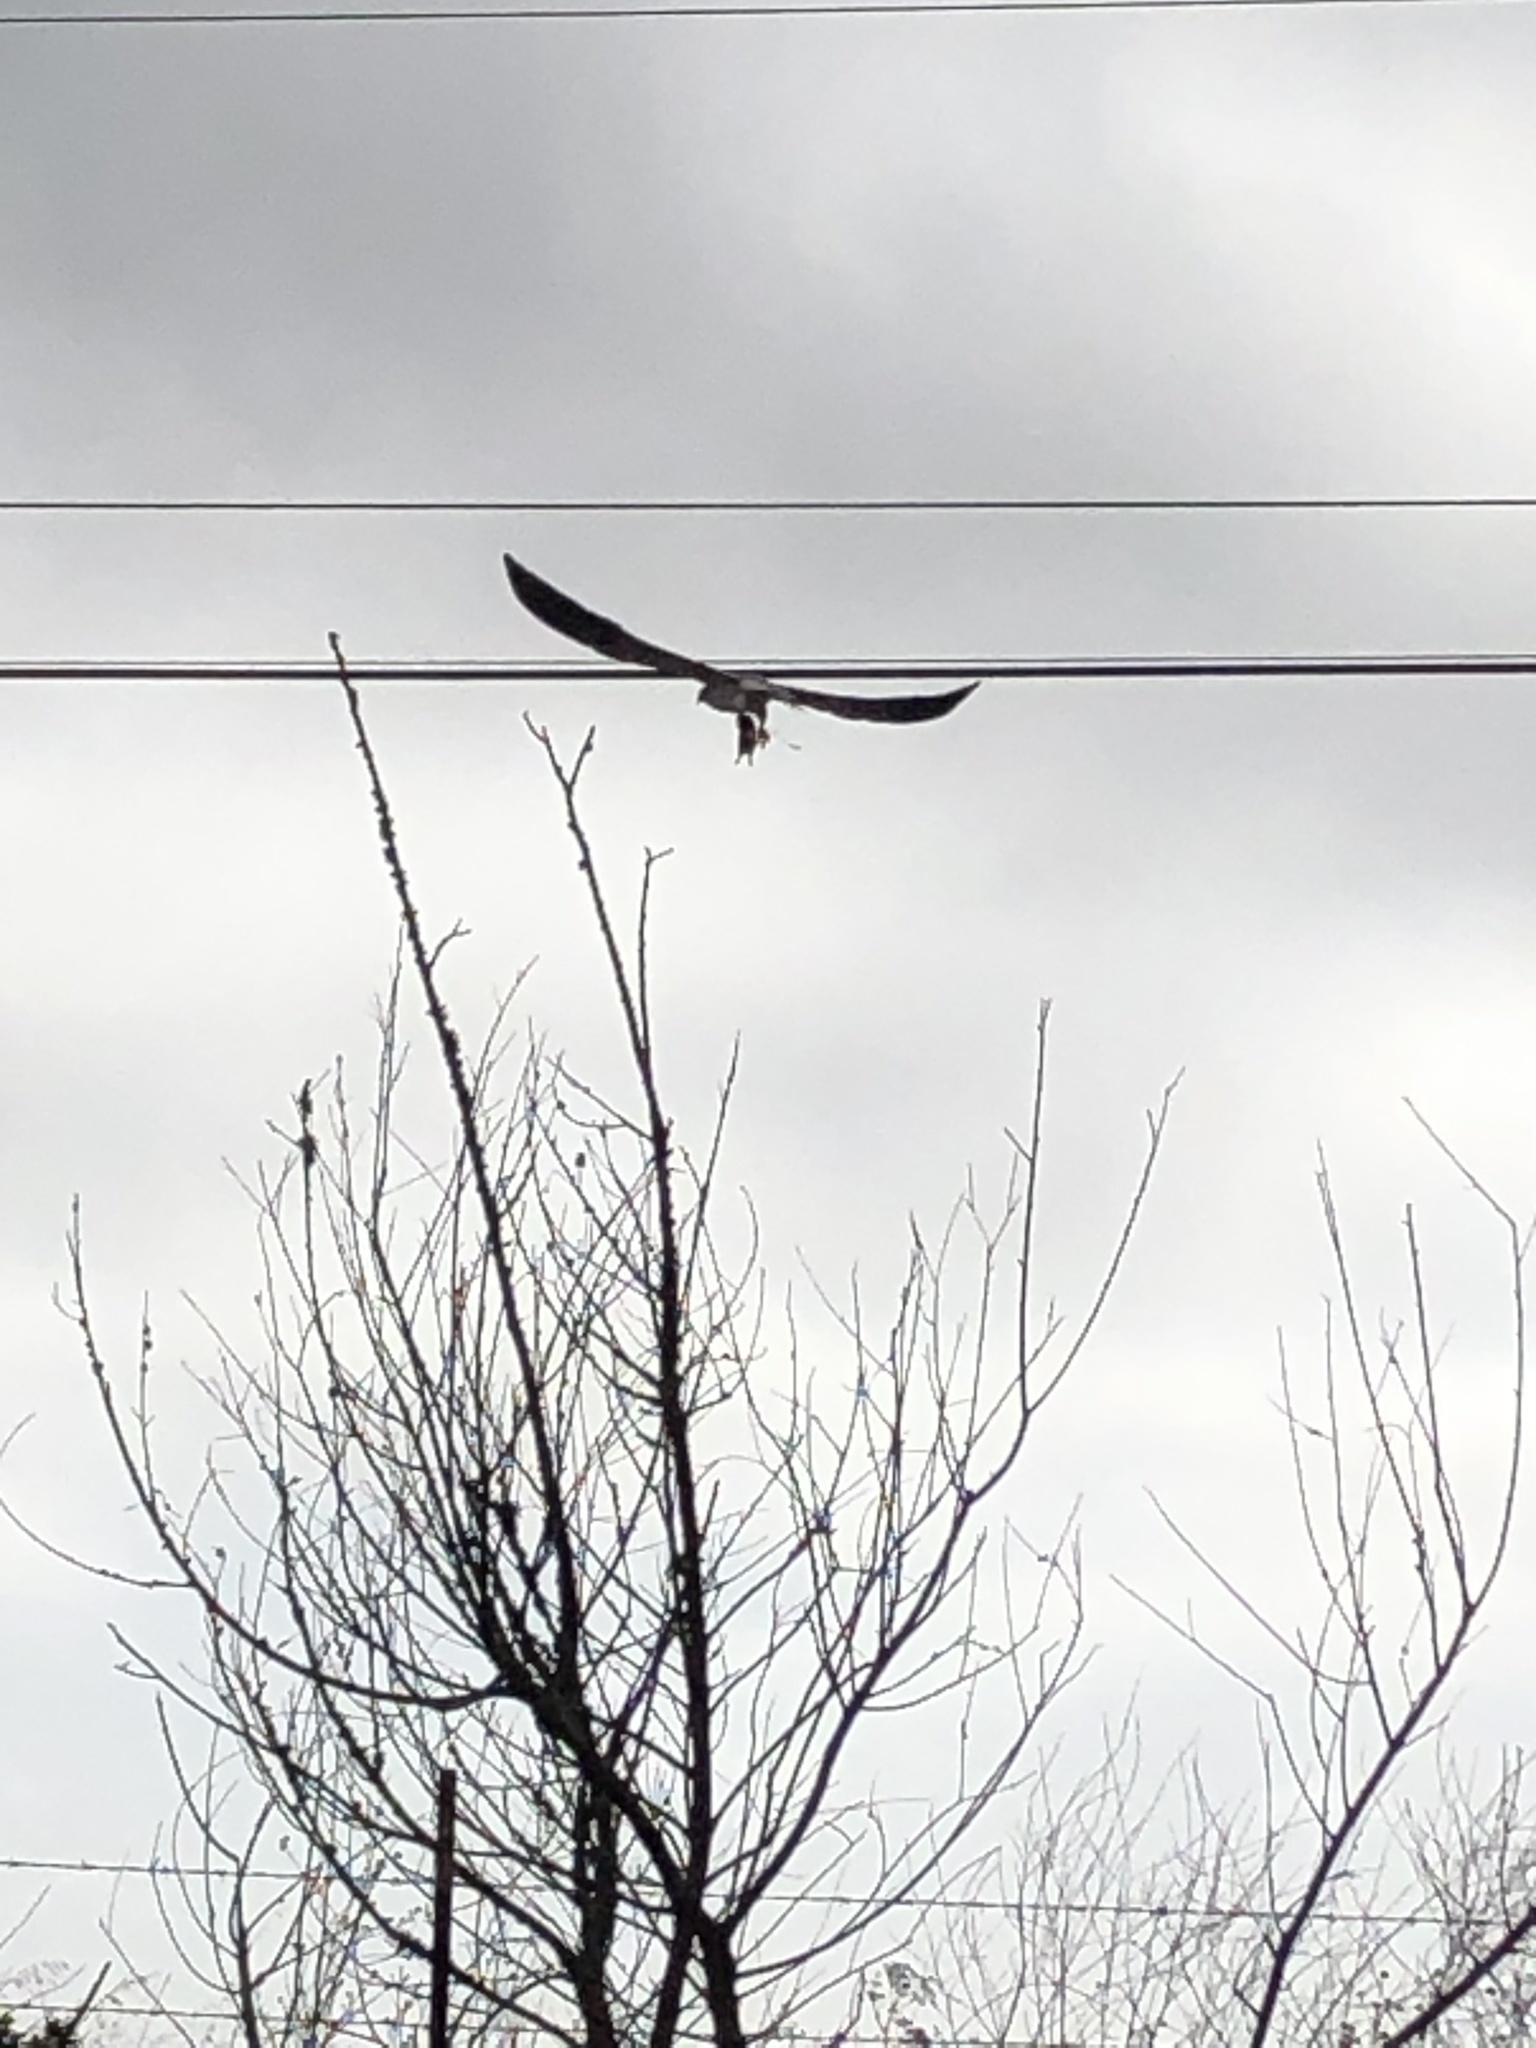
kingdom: Animalia
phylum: Chordata
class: Aves
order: Accipitriformes
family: Accipitridae
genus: Elanus
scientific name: Elanus leucurus
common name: White-tailed kite
